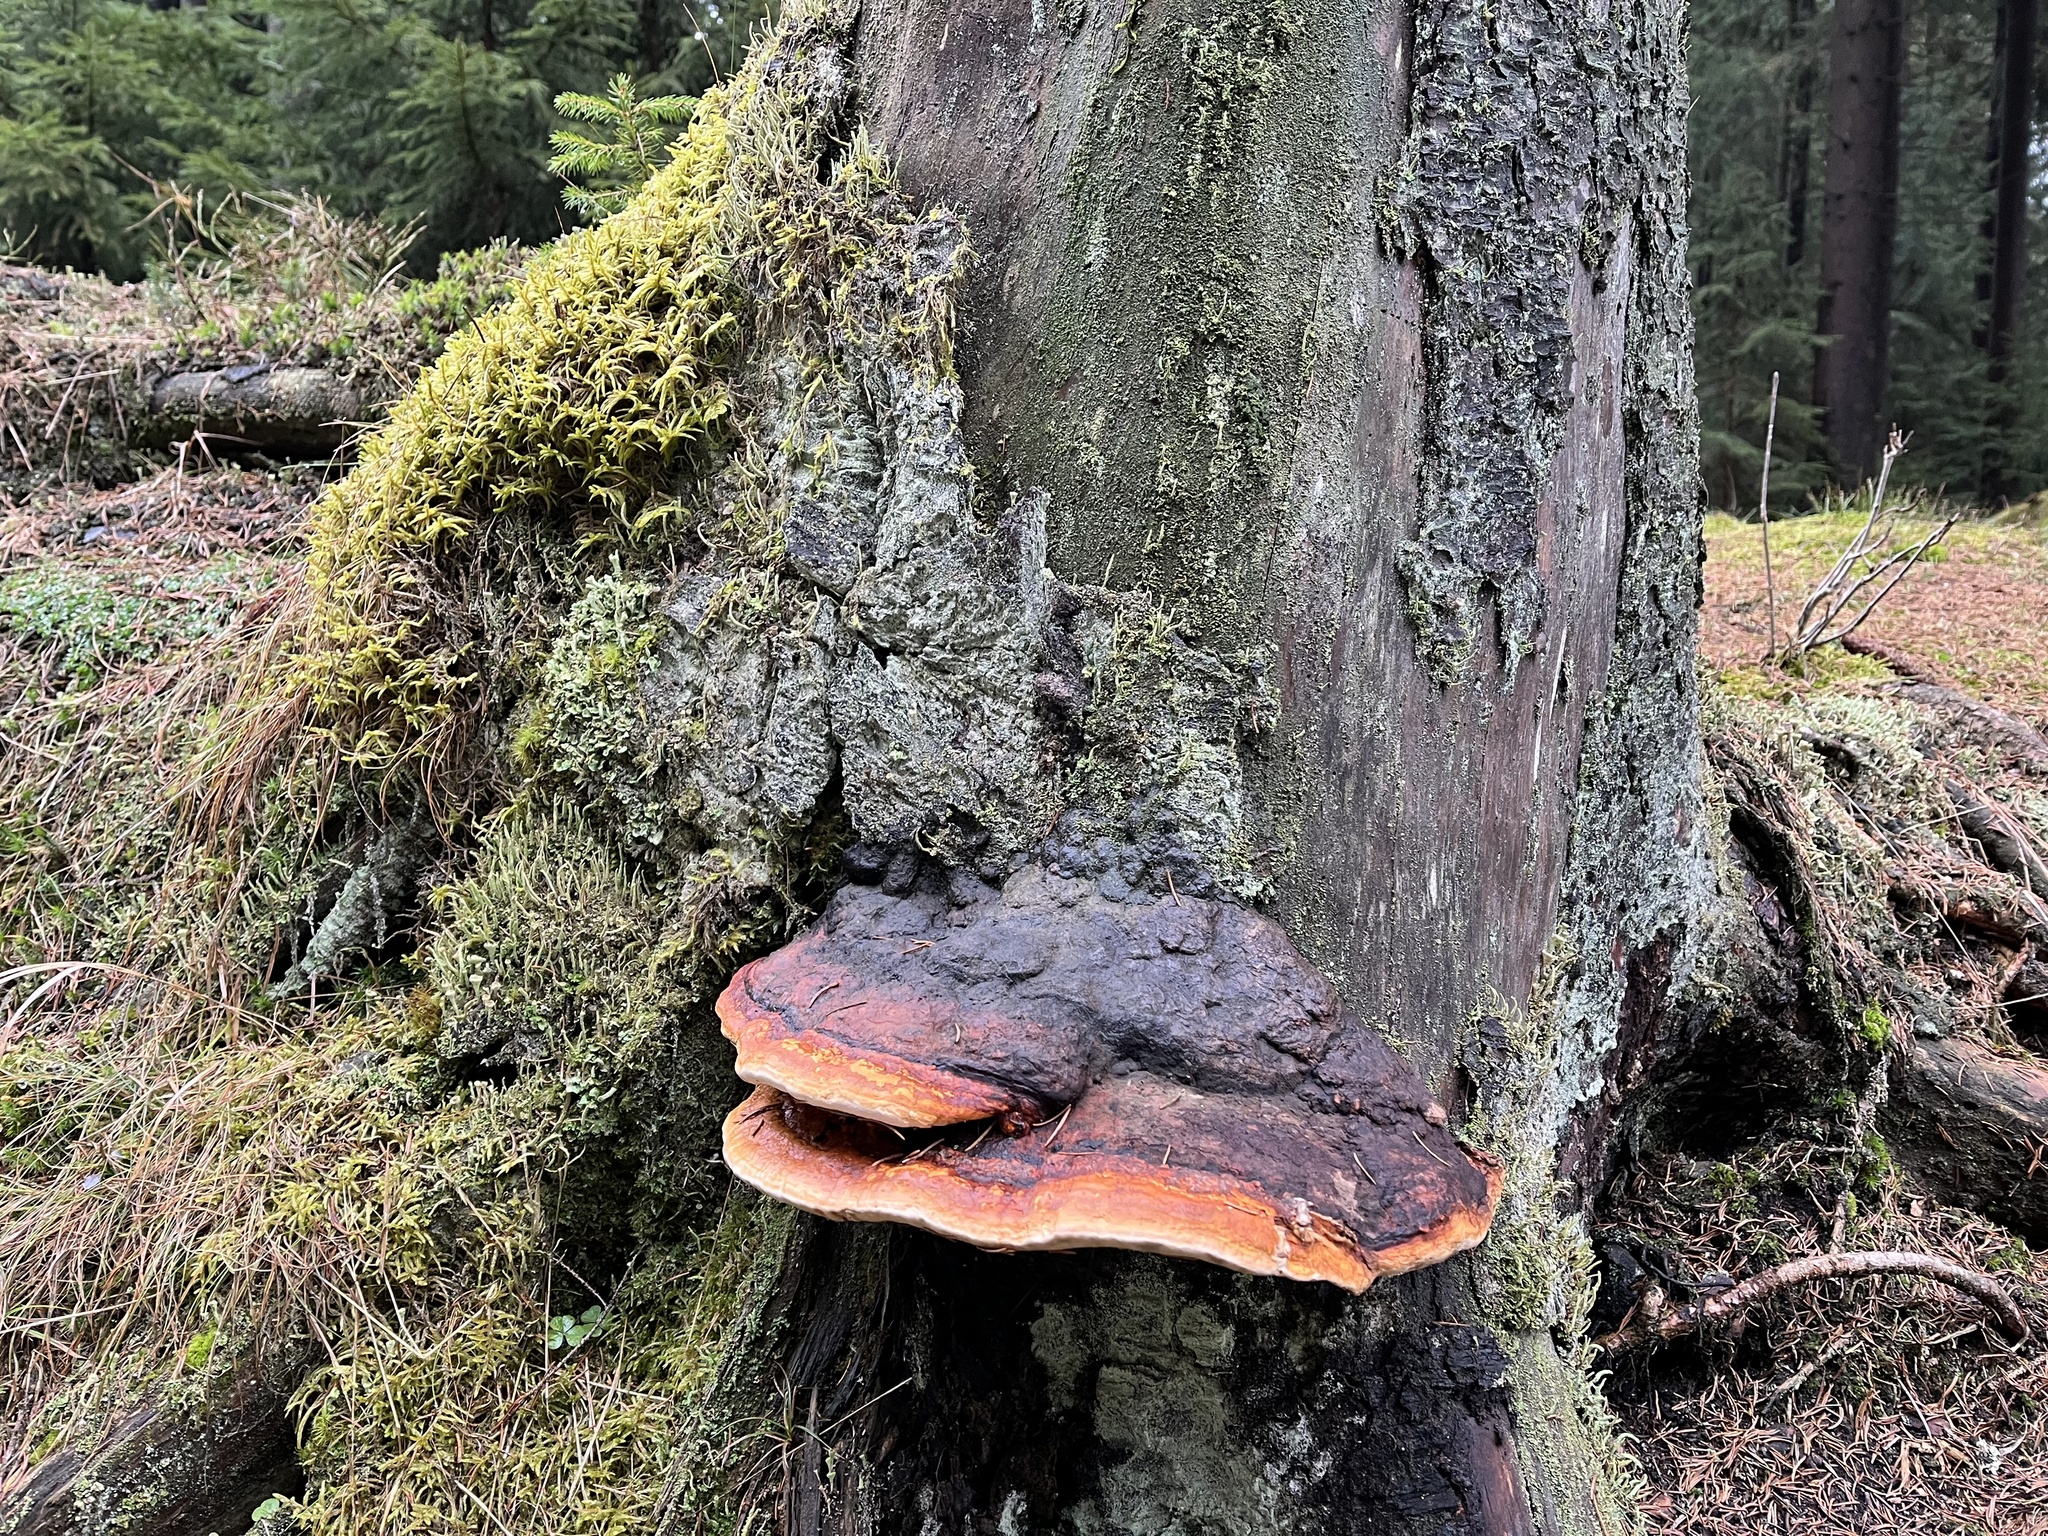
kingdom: Fungi
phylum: Basidiomycota
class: Agaricomycetes
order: Polyporales
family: Fomitopsidaceae
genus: Fomitopsis
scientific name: Fomitopsis pinicola
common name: Red-belted bracket
